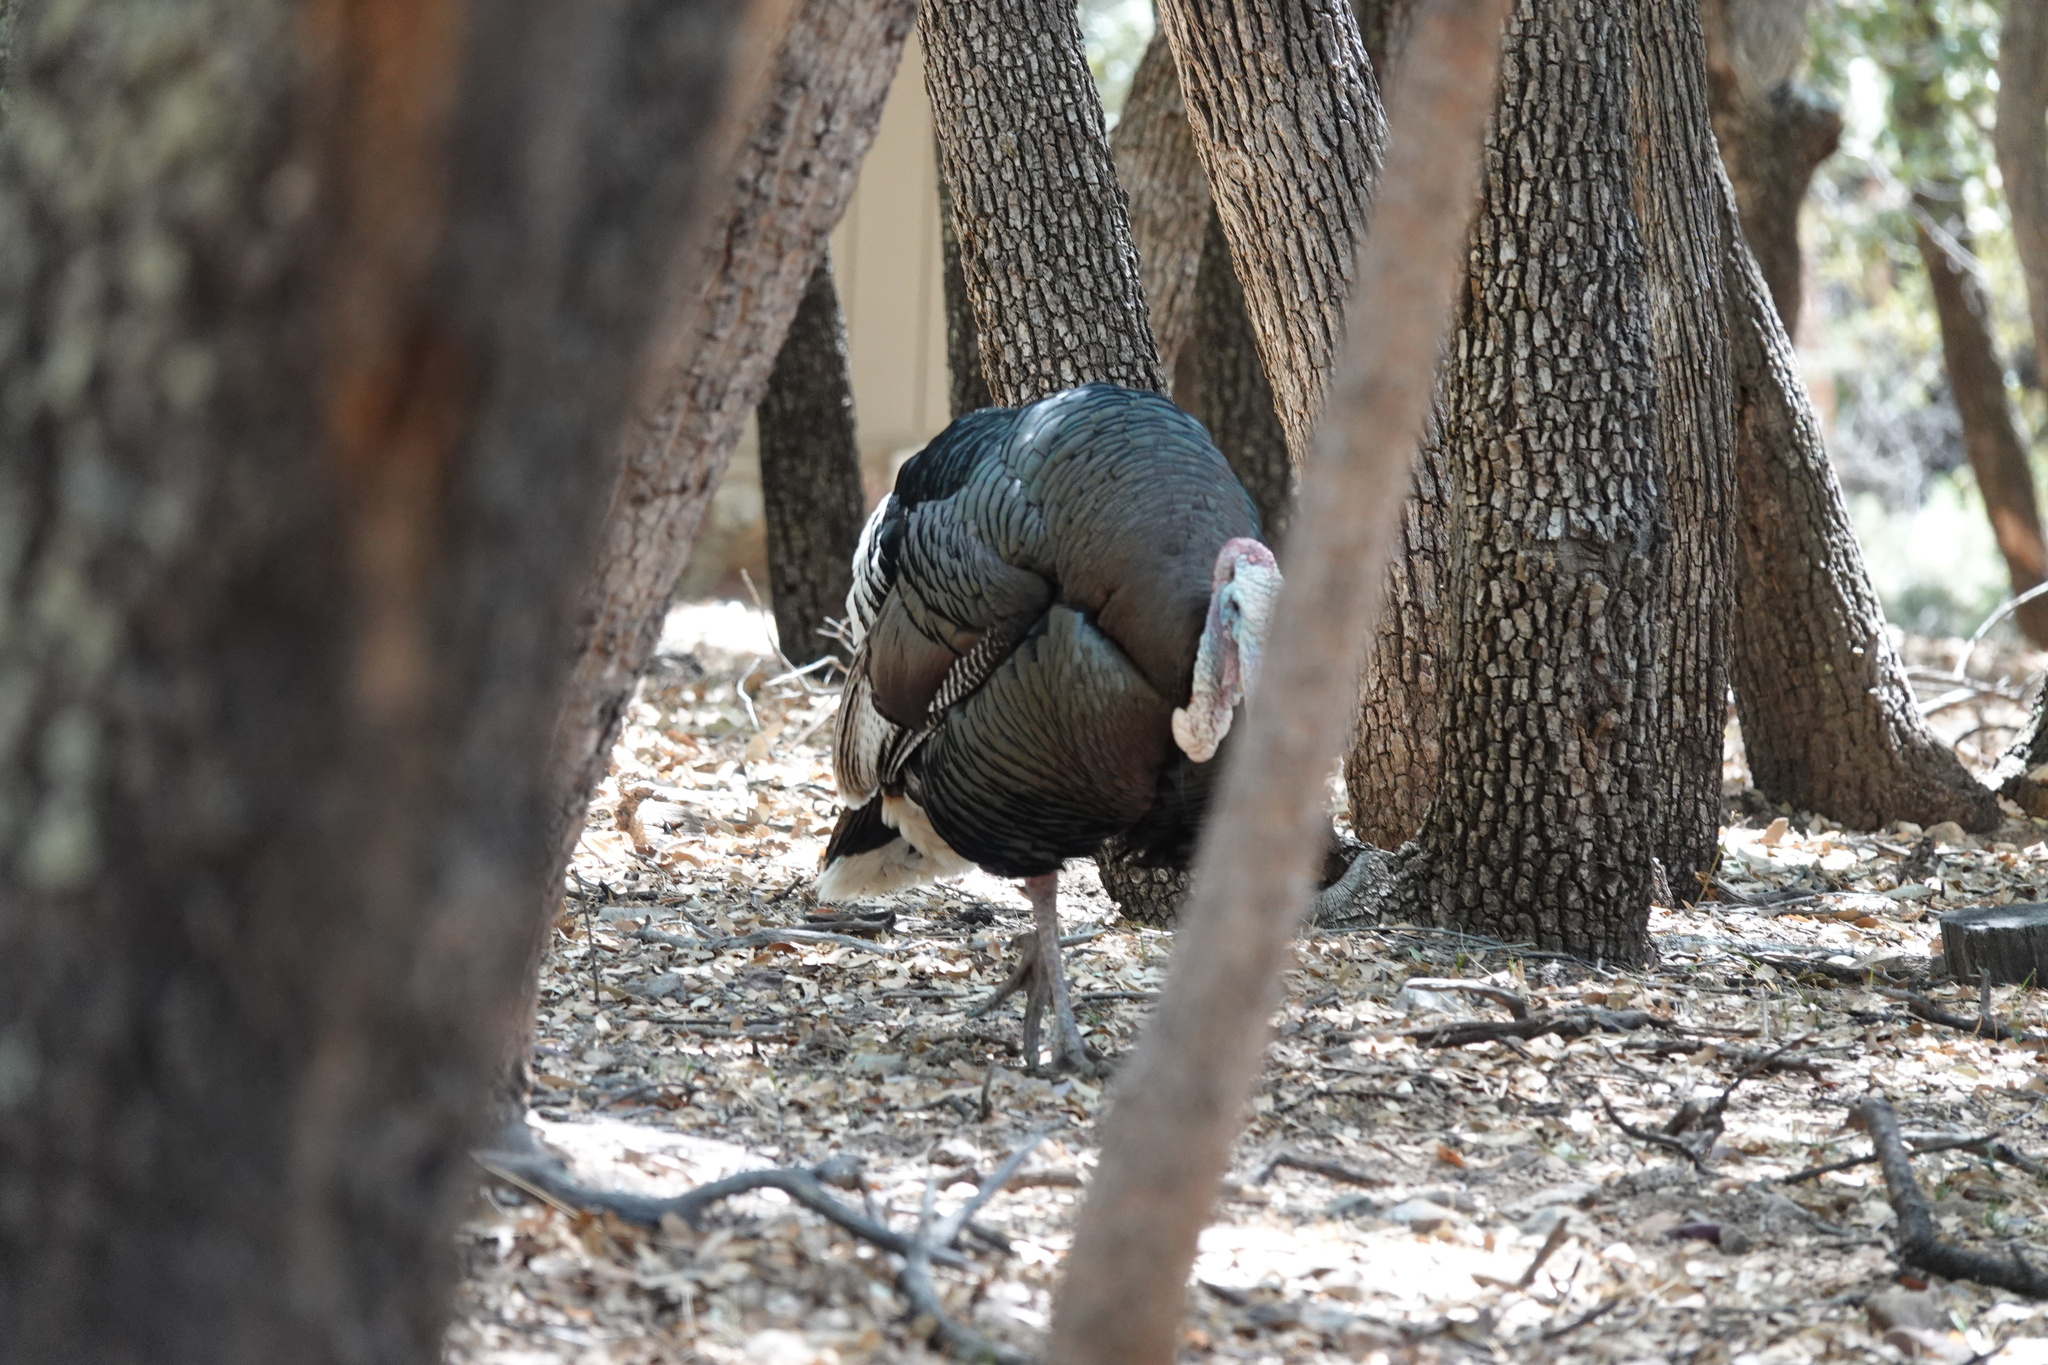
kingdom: Animalia
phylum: Chordata
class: Aves
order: Galliformes
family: Phasianidae
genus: Meleagris
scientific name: Meleagris gallopavo
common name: Wild turkey
